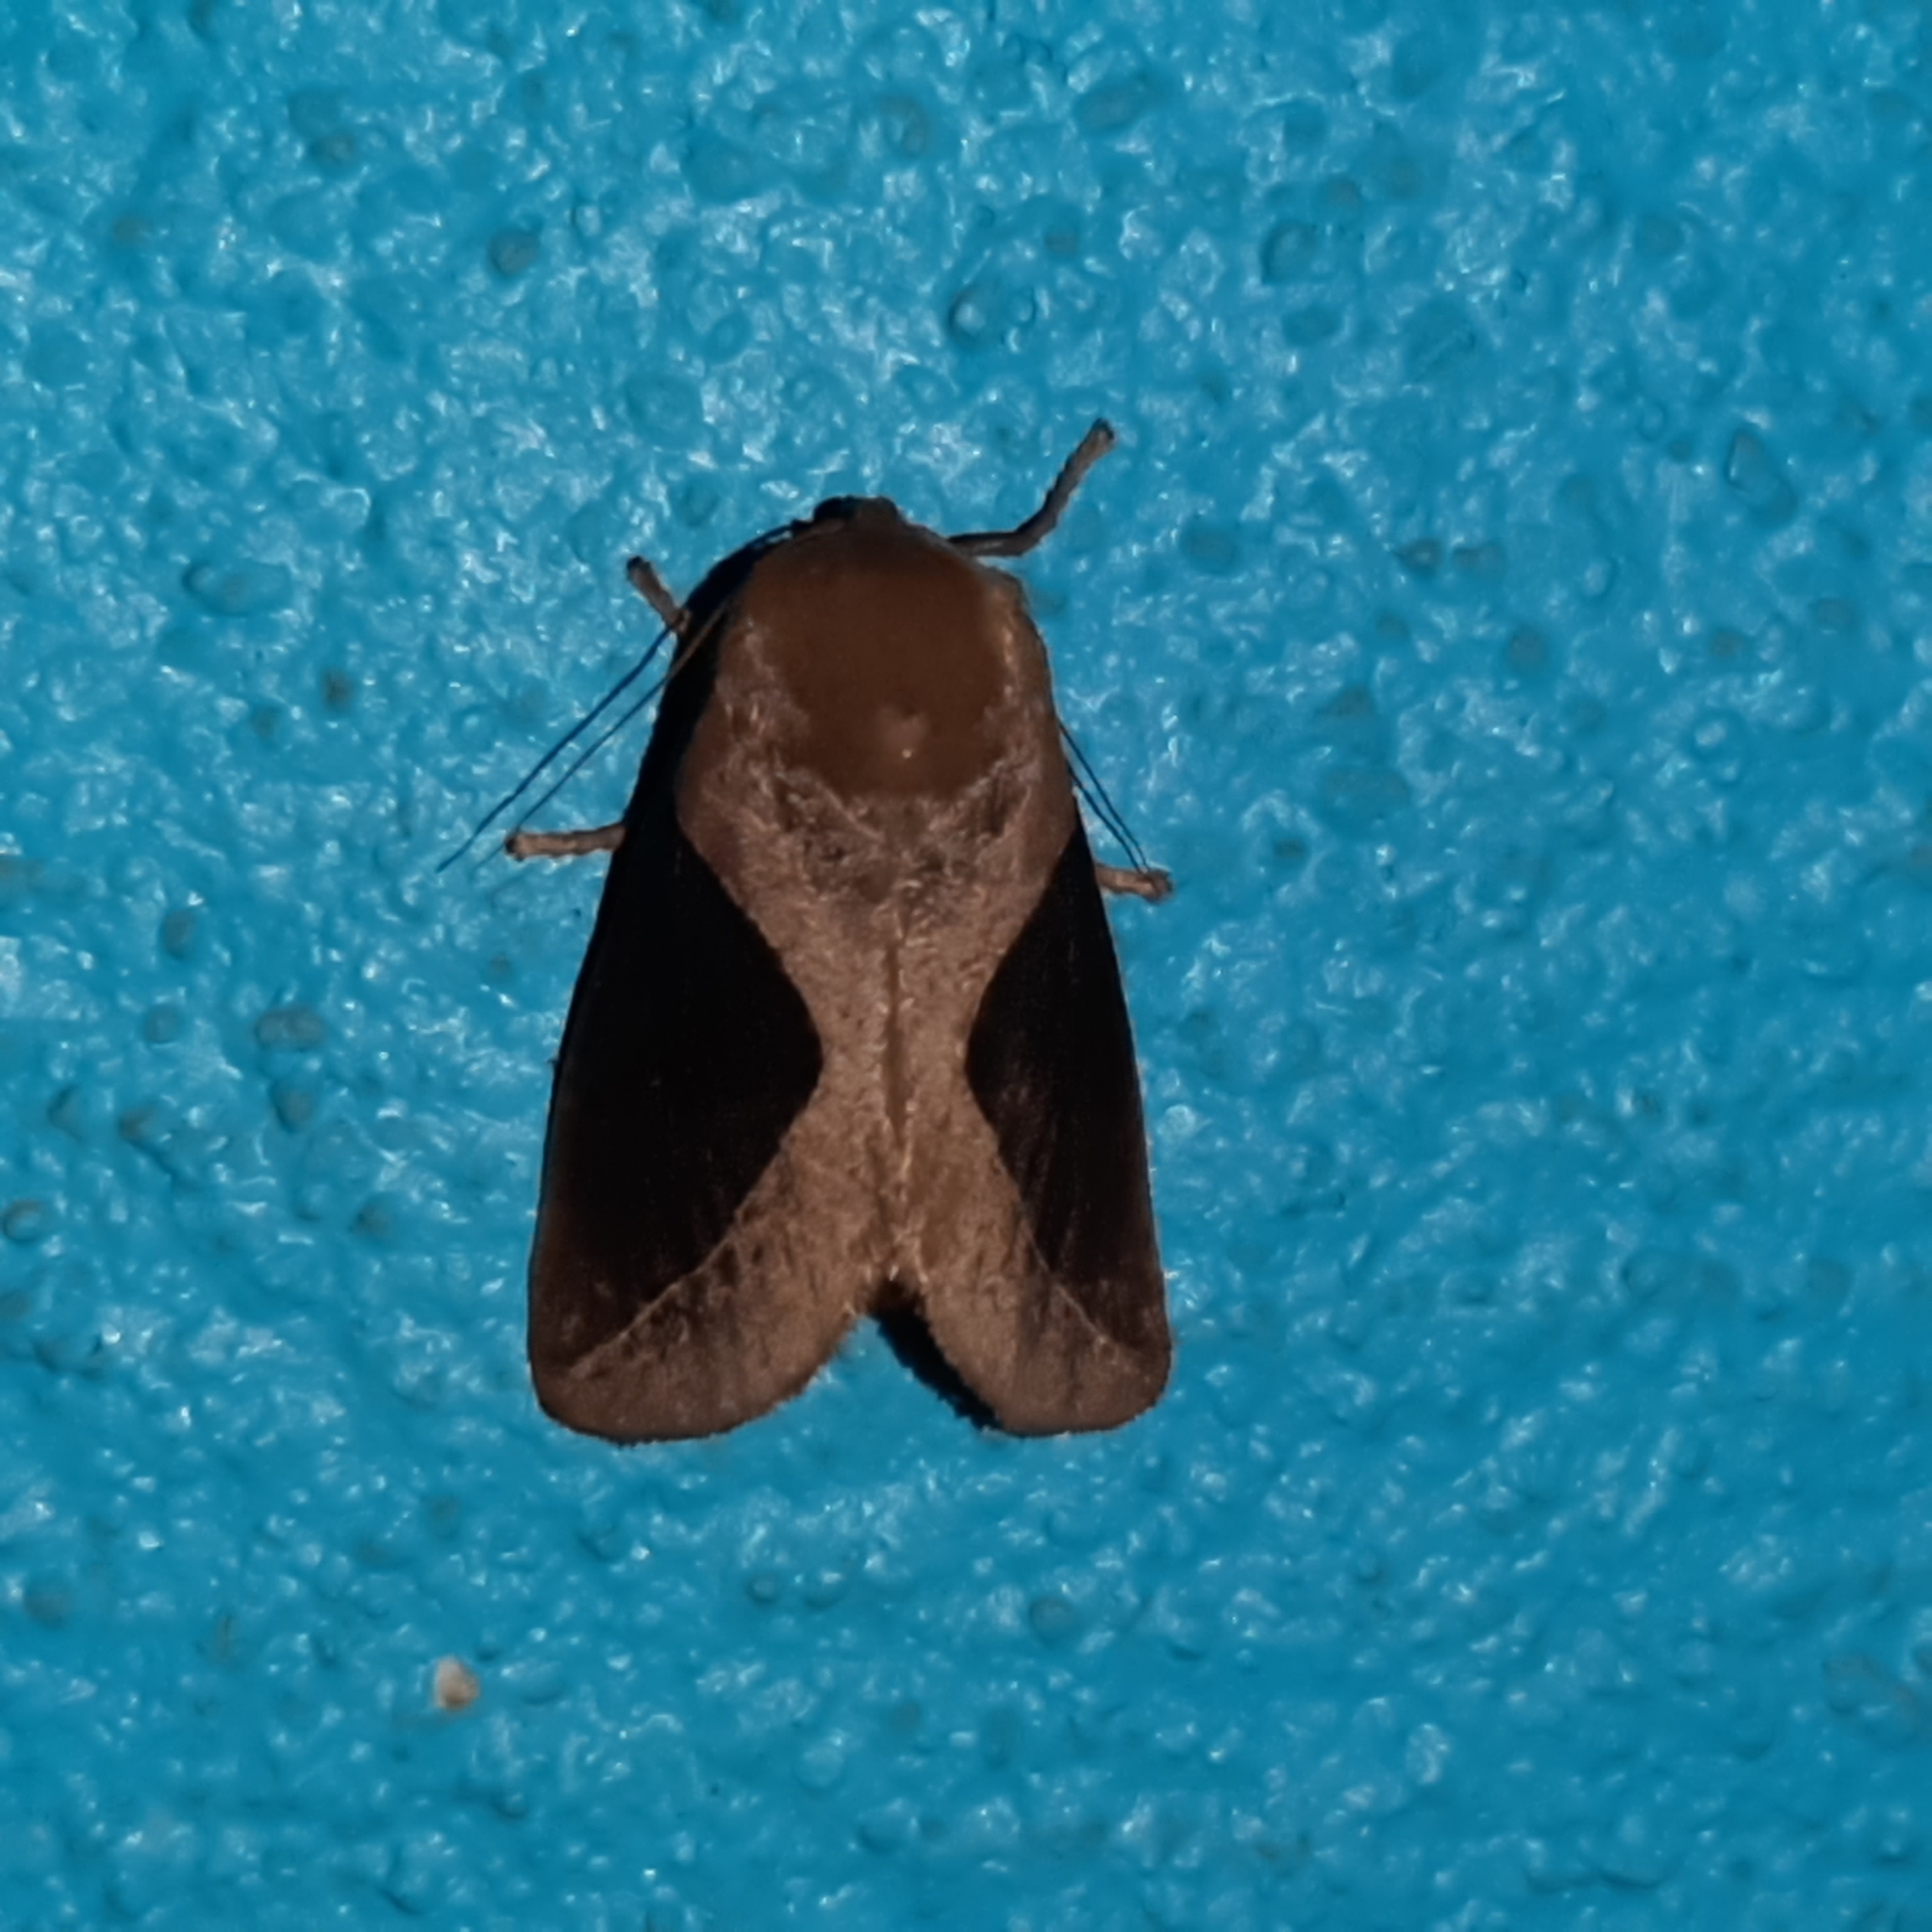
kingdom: Animalia
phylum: Arthropoda
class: Insecta
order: Lepidoptera
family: Limacodidae
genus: Prolimacodes
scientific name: Prolimacodes montanus
